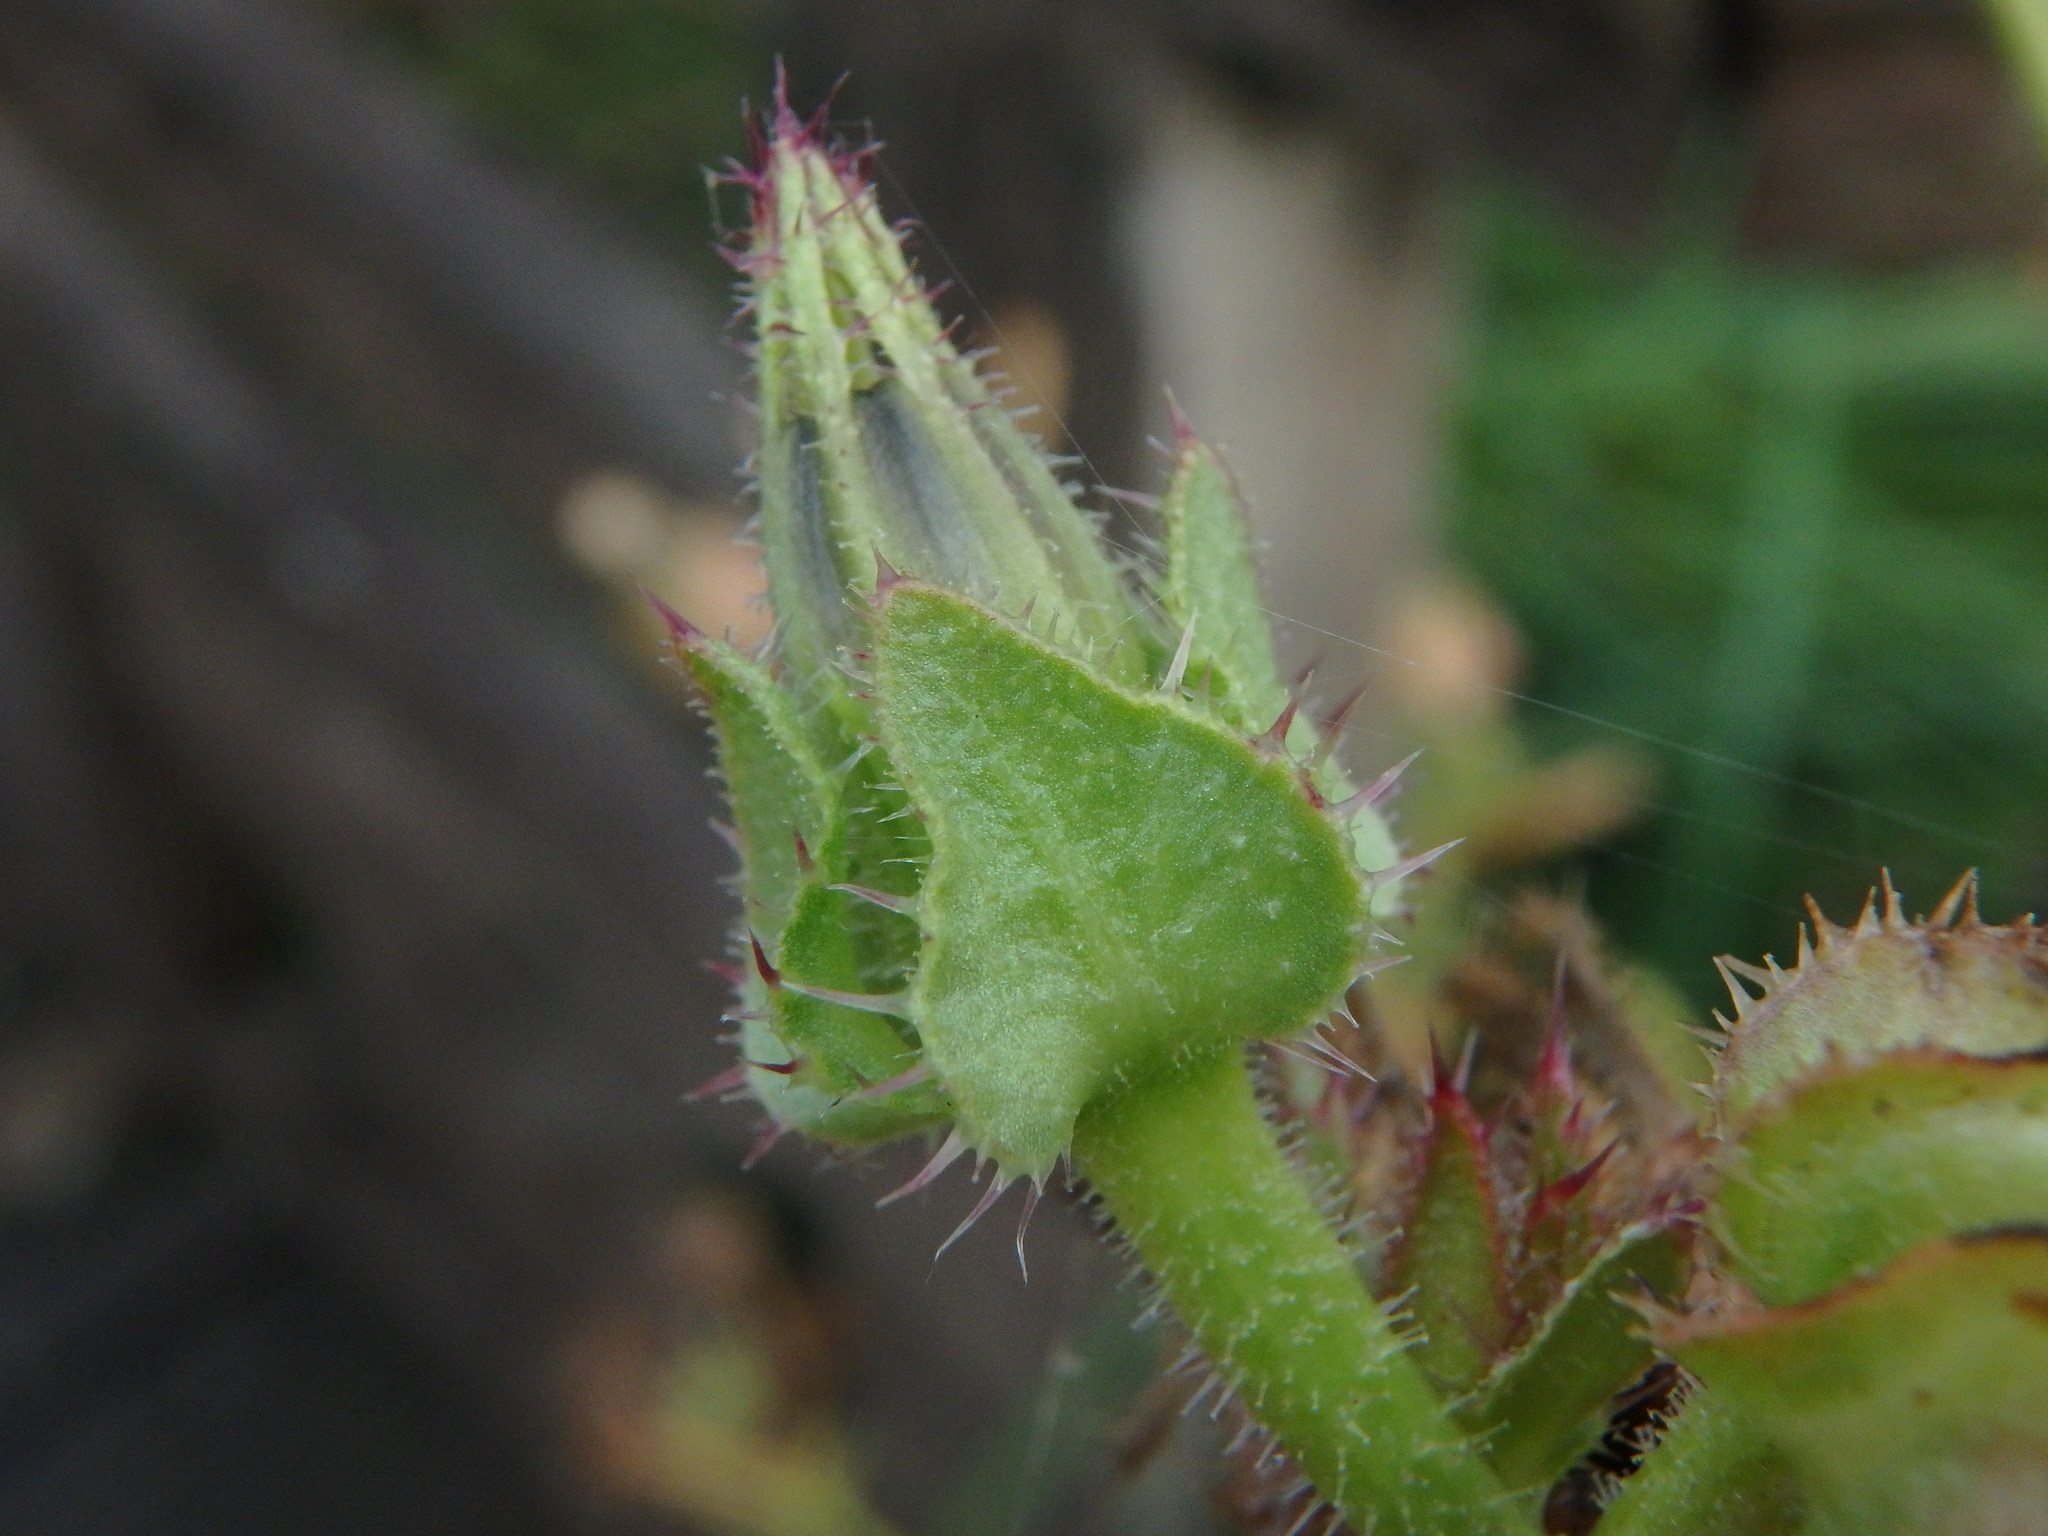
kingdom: Plantae
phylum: Tracheophyta
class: Magnoliopsida
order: Asterales
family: Asteraceae
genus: Helminthotheca
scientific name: Helminthotheca echioides
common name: Ox-tongue
